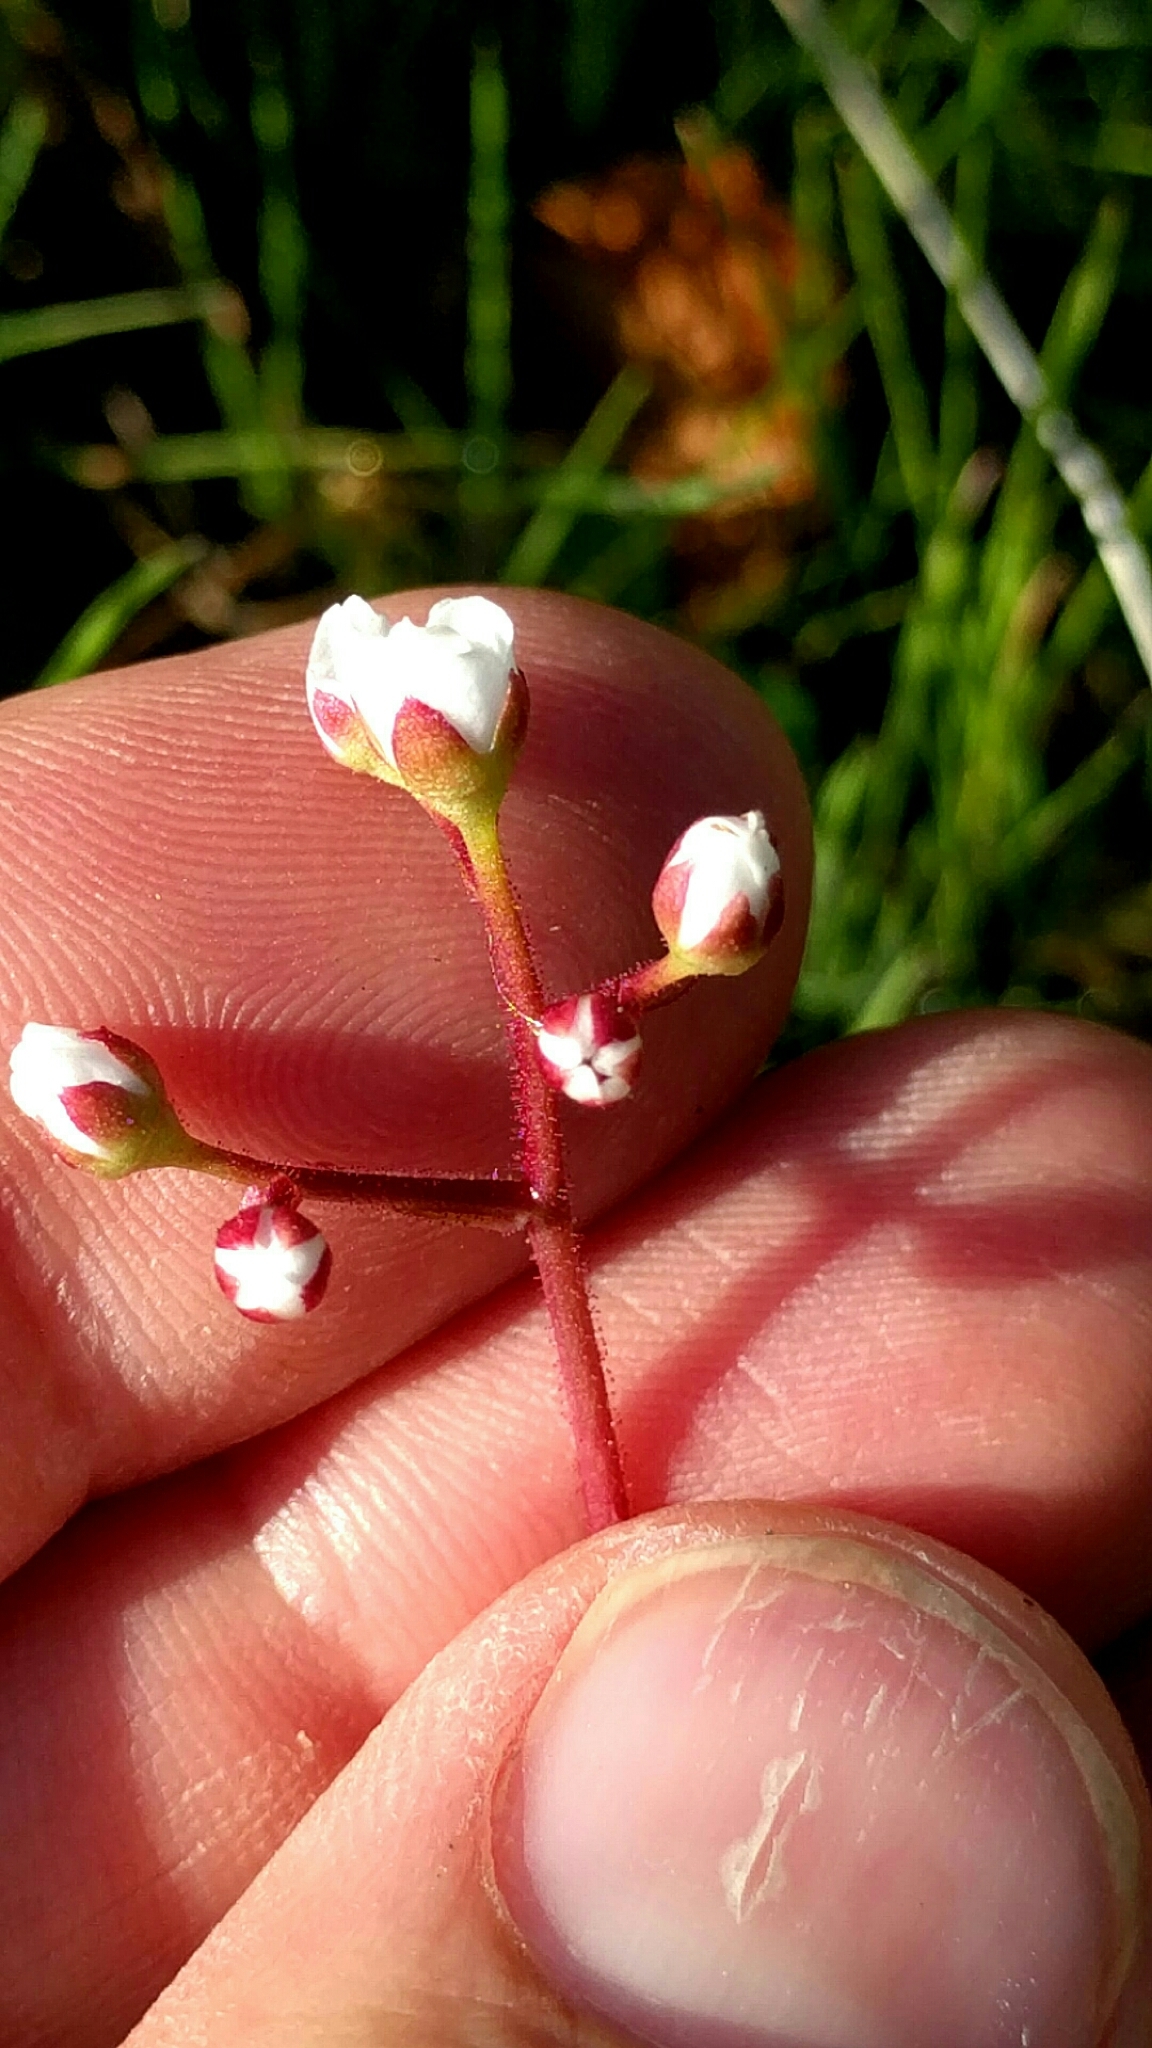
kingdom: Plantae
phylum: Tracheophyta
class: Magnoliopsida
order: Saxifragales
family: Saxifragaceae
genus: Micranthes
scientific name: Micranthes californica
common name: California saxifrage
